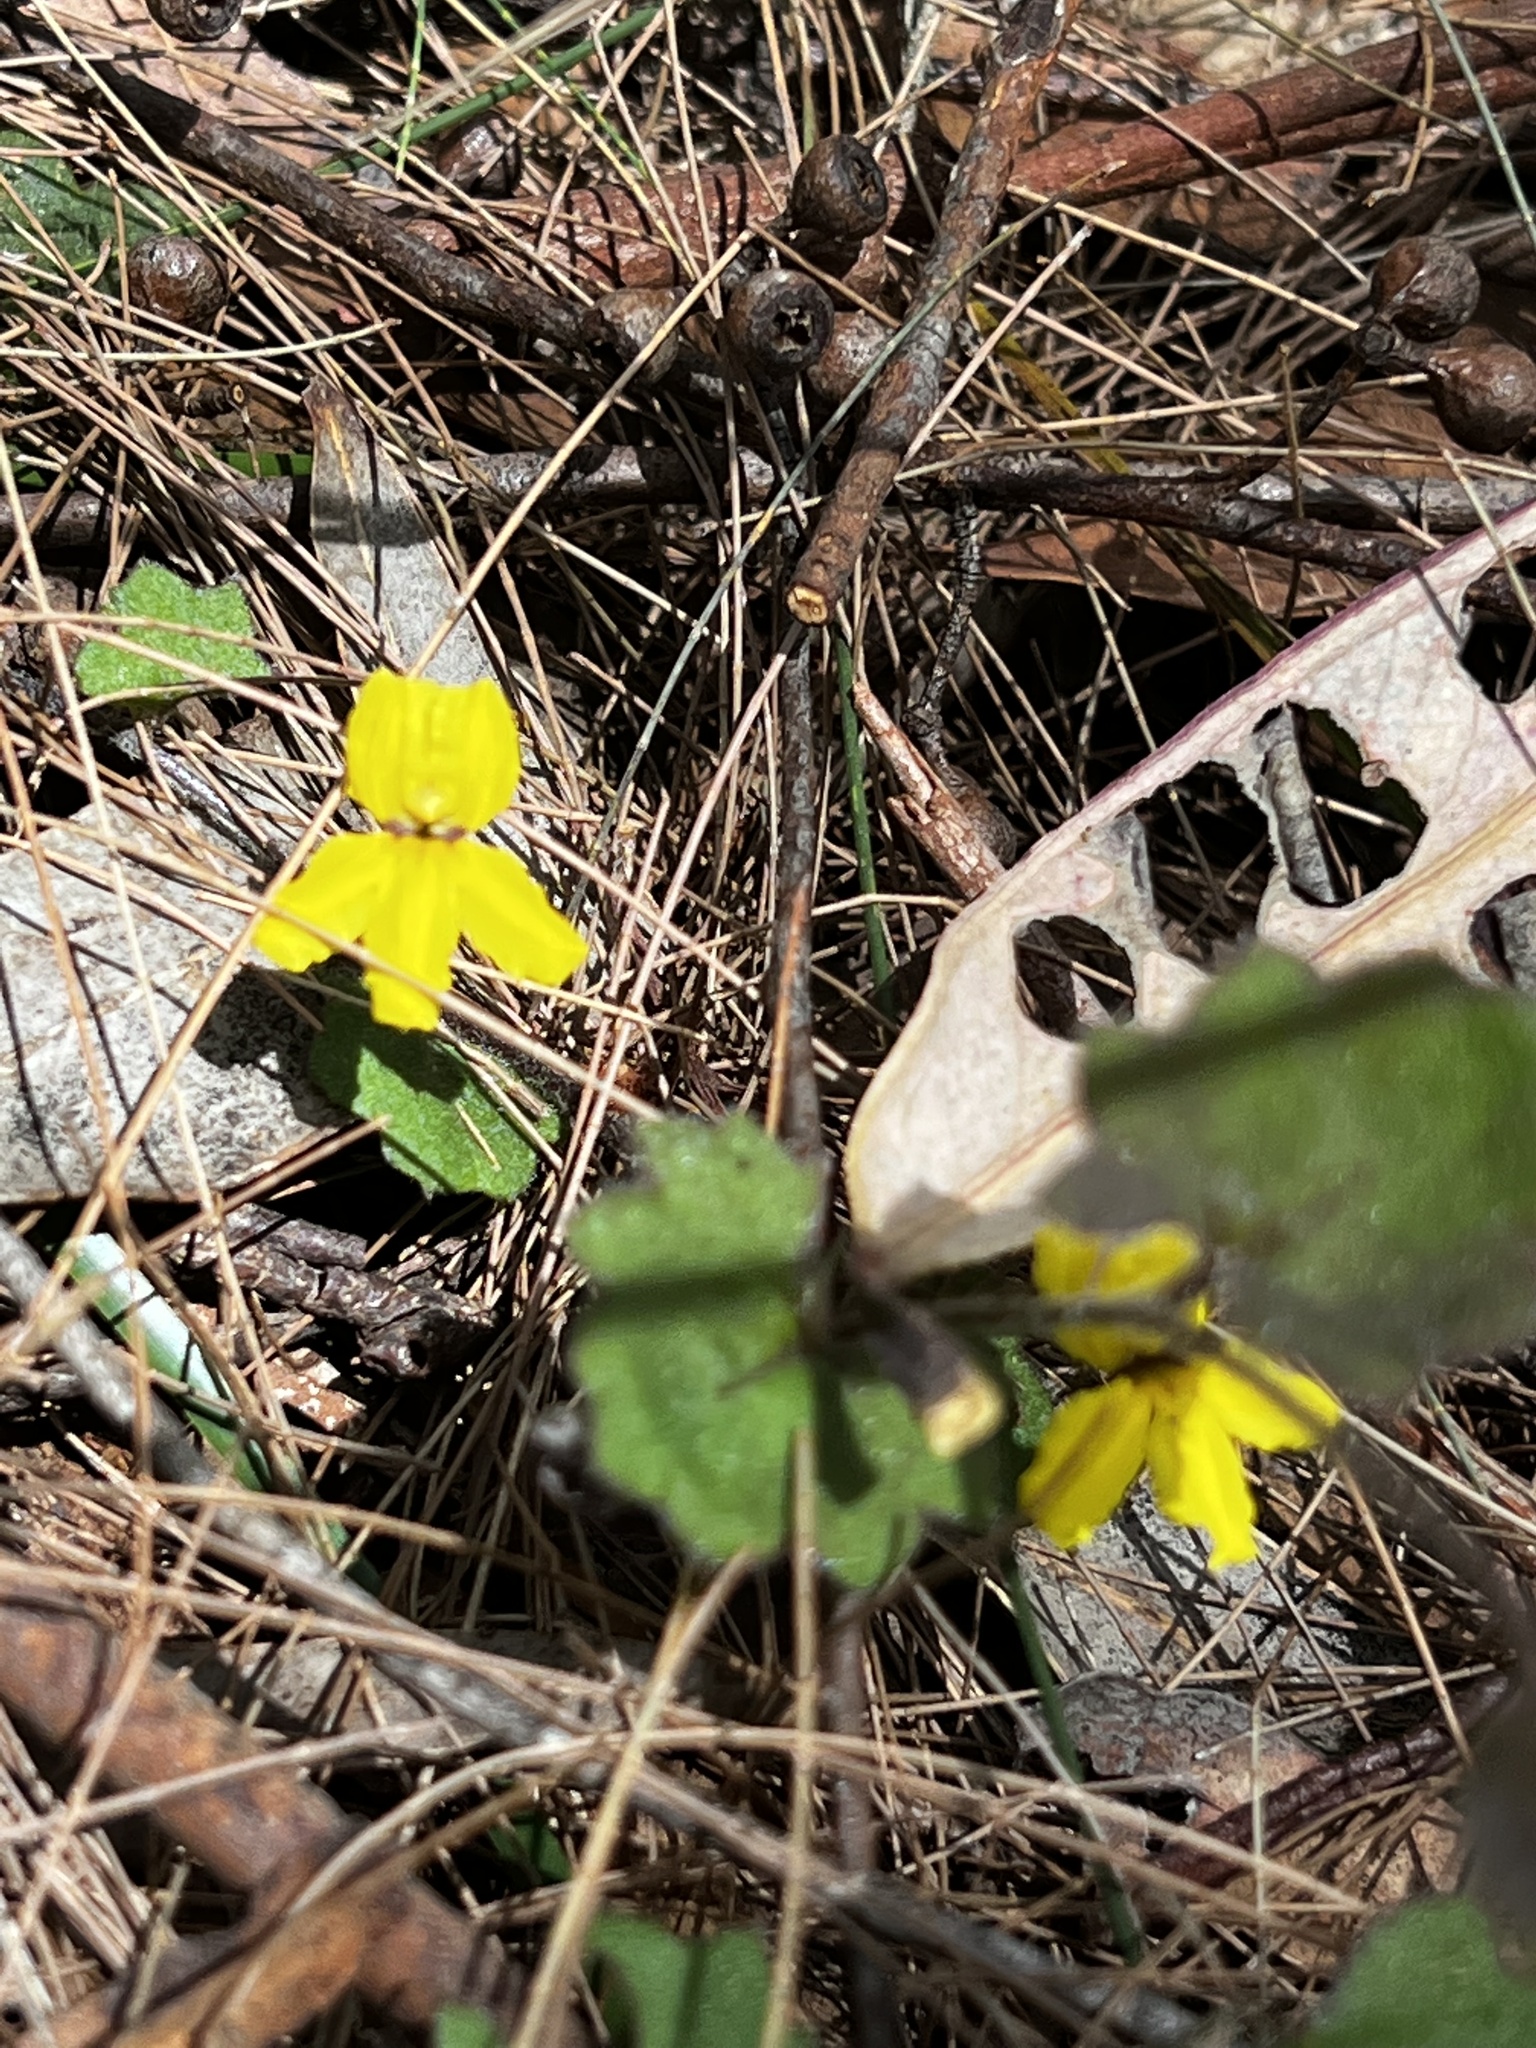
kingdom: Plantae
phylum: Tracheophyta
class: Magnoliopsida
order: Asterales
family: Goodeniaceae
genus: Goodenia
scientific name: Goodenia rotundifolia
